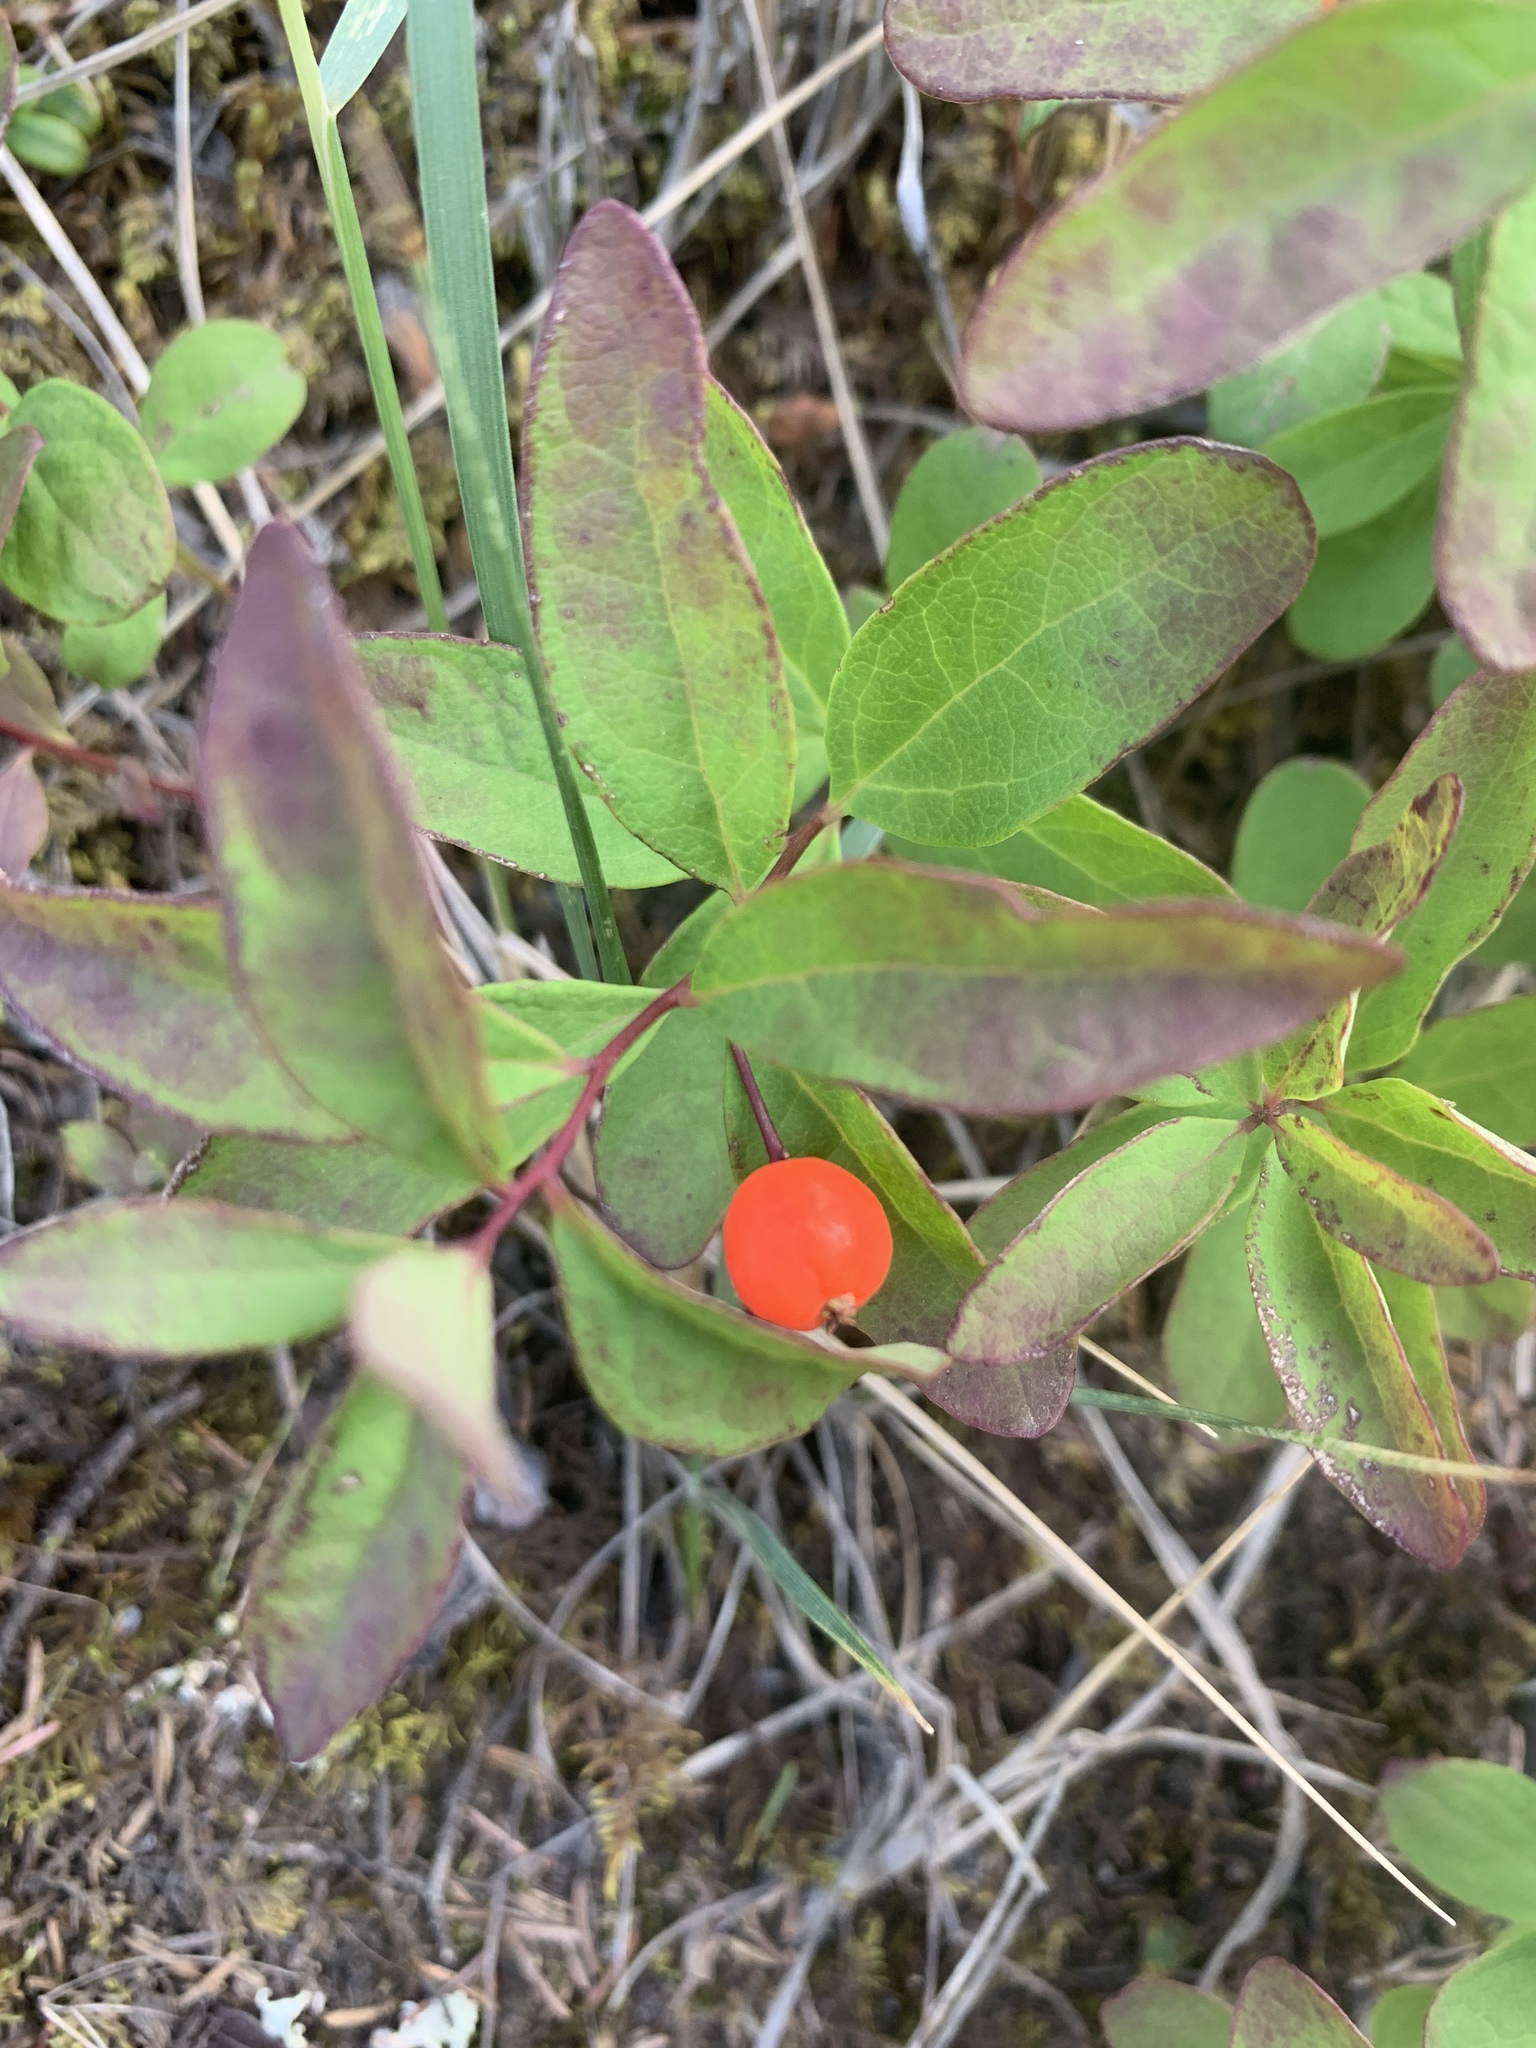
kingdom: Plantae
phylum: Tracheophyta
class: Magnoliopsida
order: Santalales
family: Comandraceae
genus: Geocaulon
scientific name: Geocaulon lividum
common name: Earthberry
